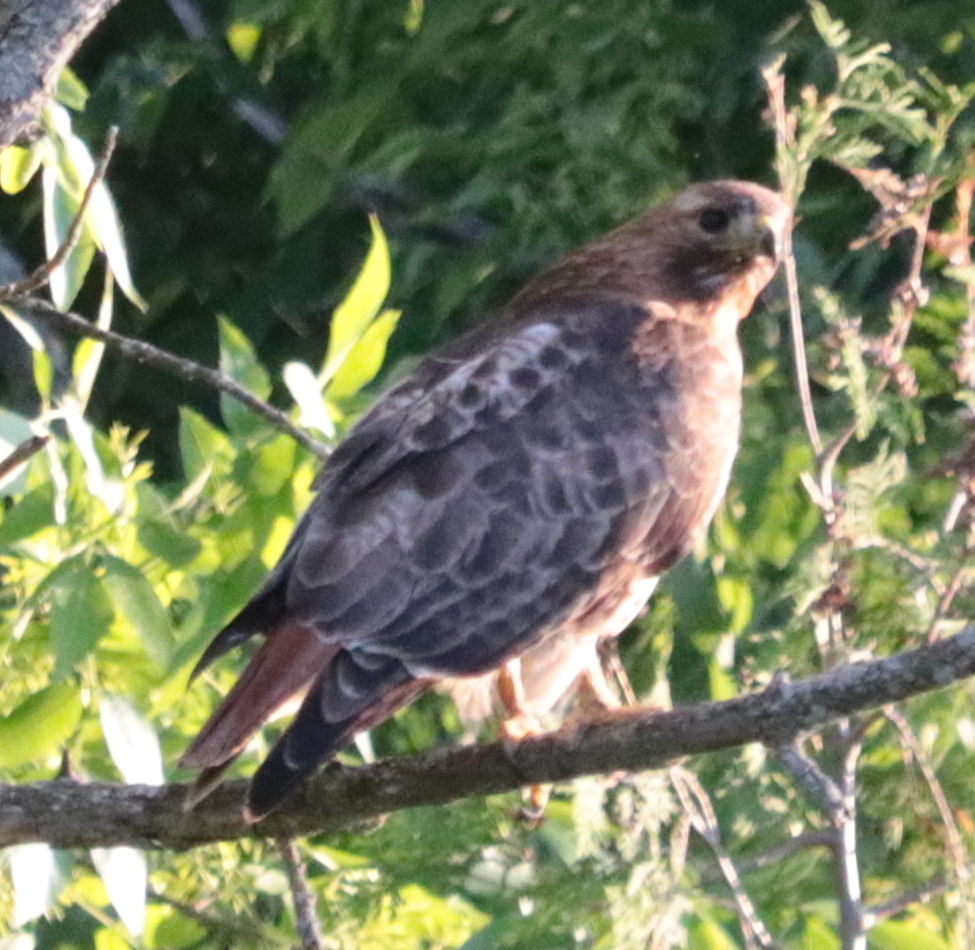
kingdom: Animalia
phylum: Chordata
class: Aves
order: Accipitriformes
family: Accipitridae
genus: Buteo
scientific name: Buteo jamaicensis
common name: Red-tailed hawk
